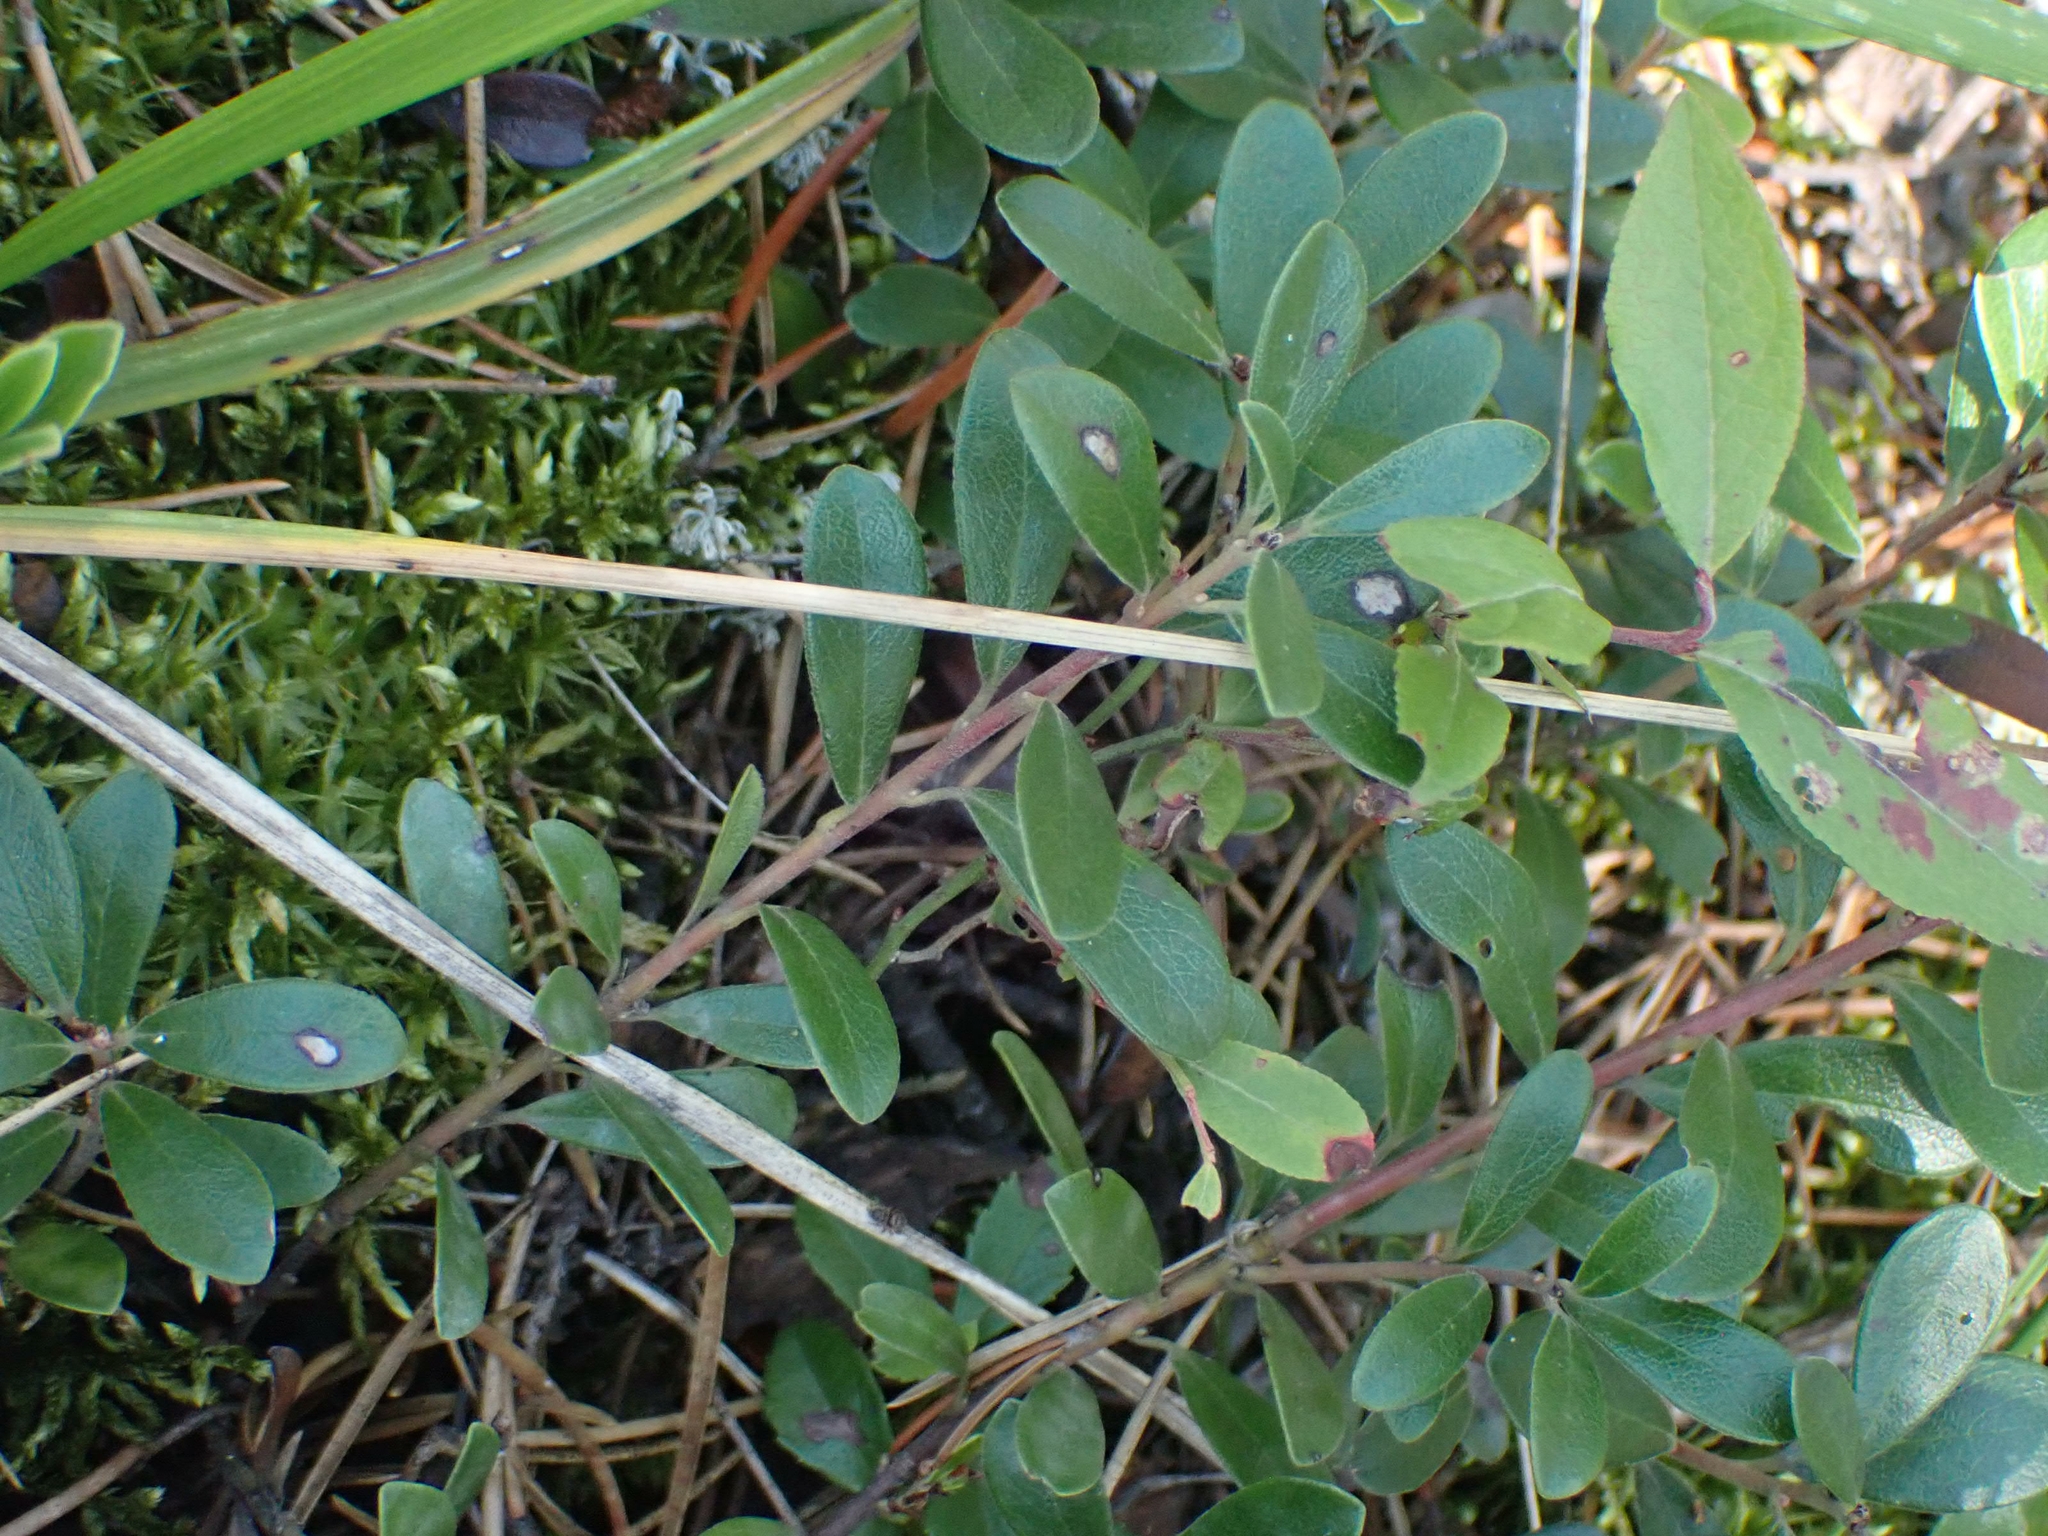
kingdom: Plantae
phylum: Tracheophyta
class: Magnoliopsida
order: Ericales
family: Ericaceae
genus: Arctostaphylos
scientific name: Arctostaphylos uva-ursi
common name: Bearberry
